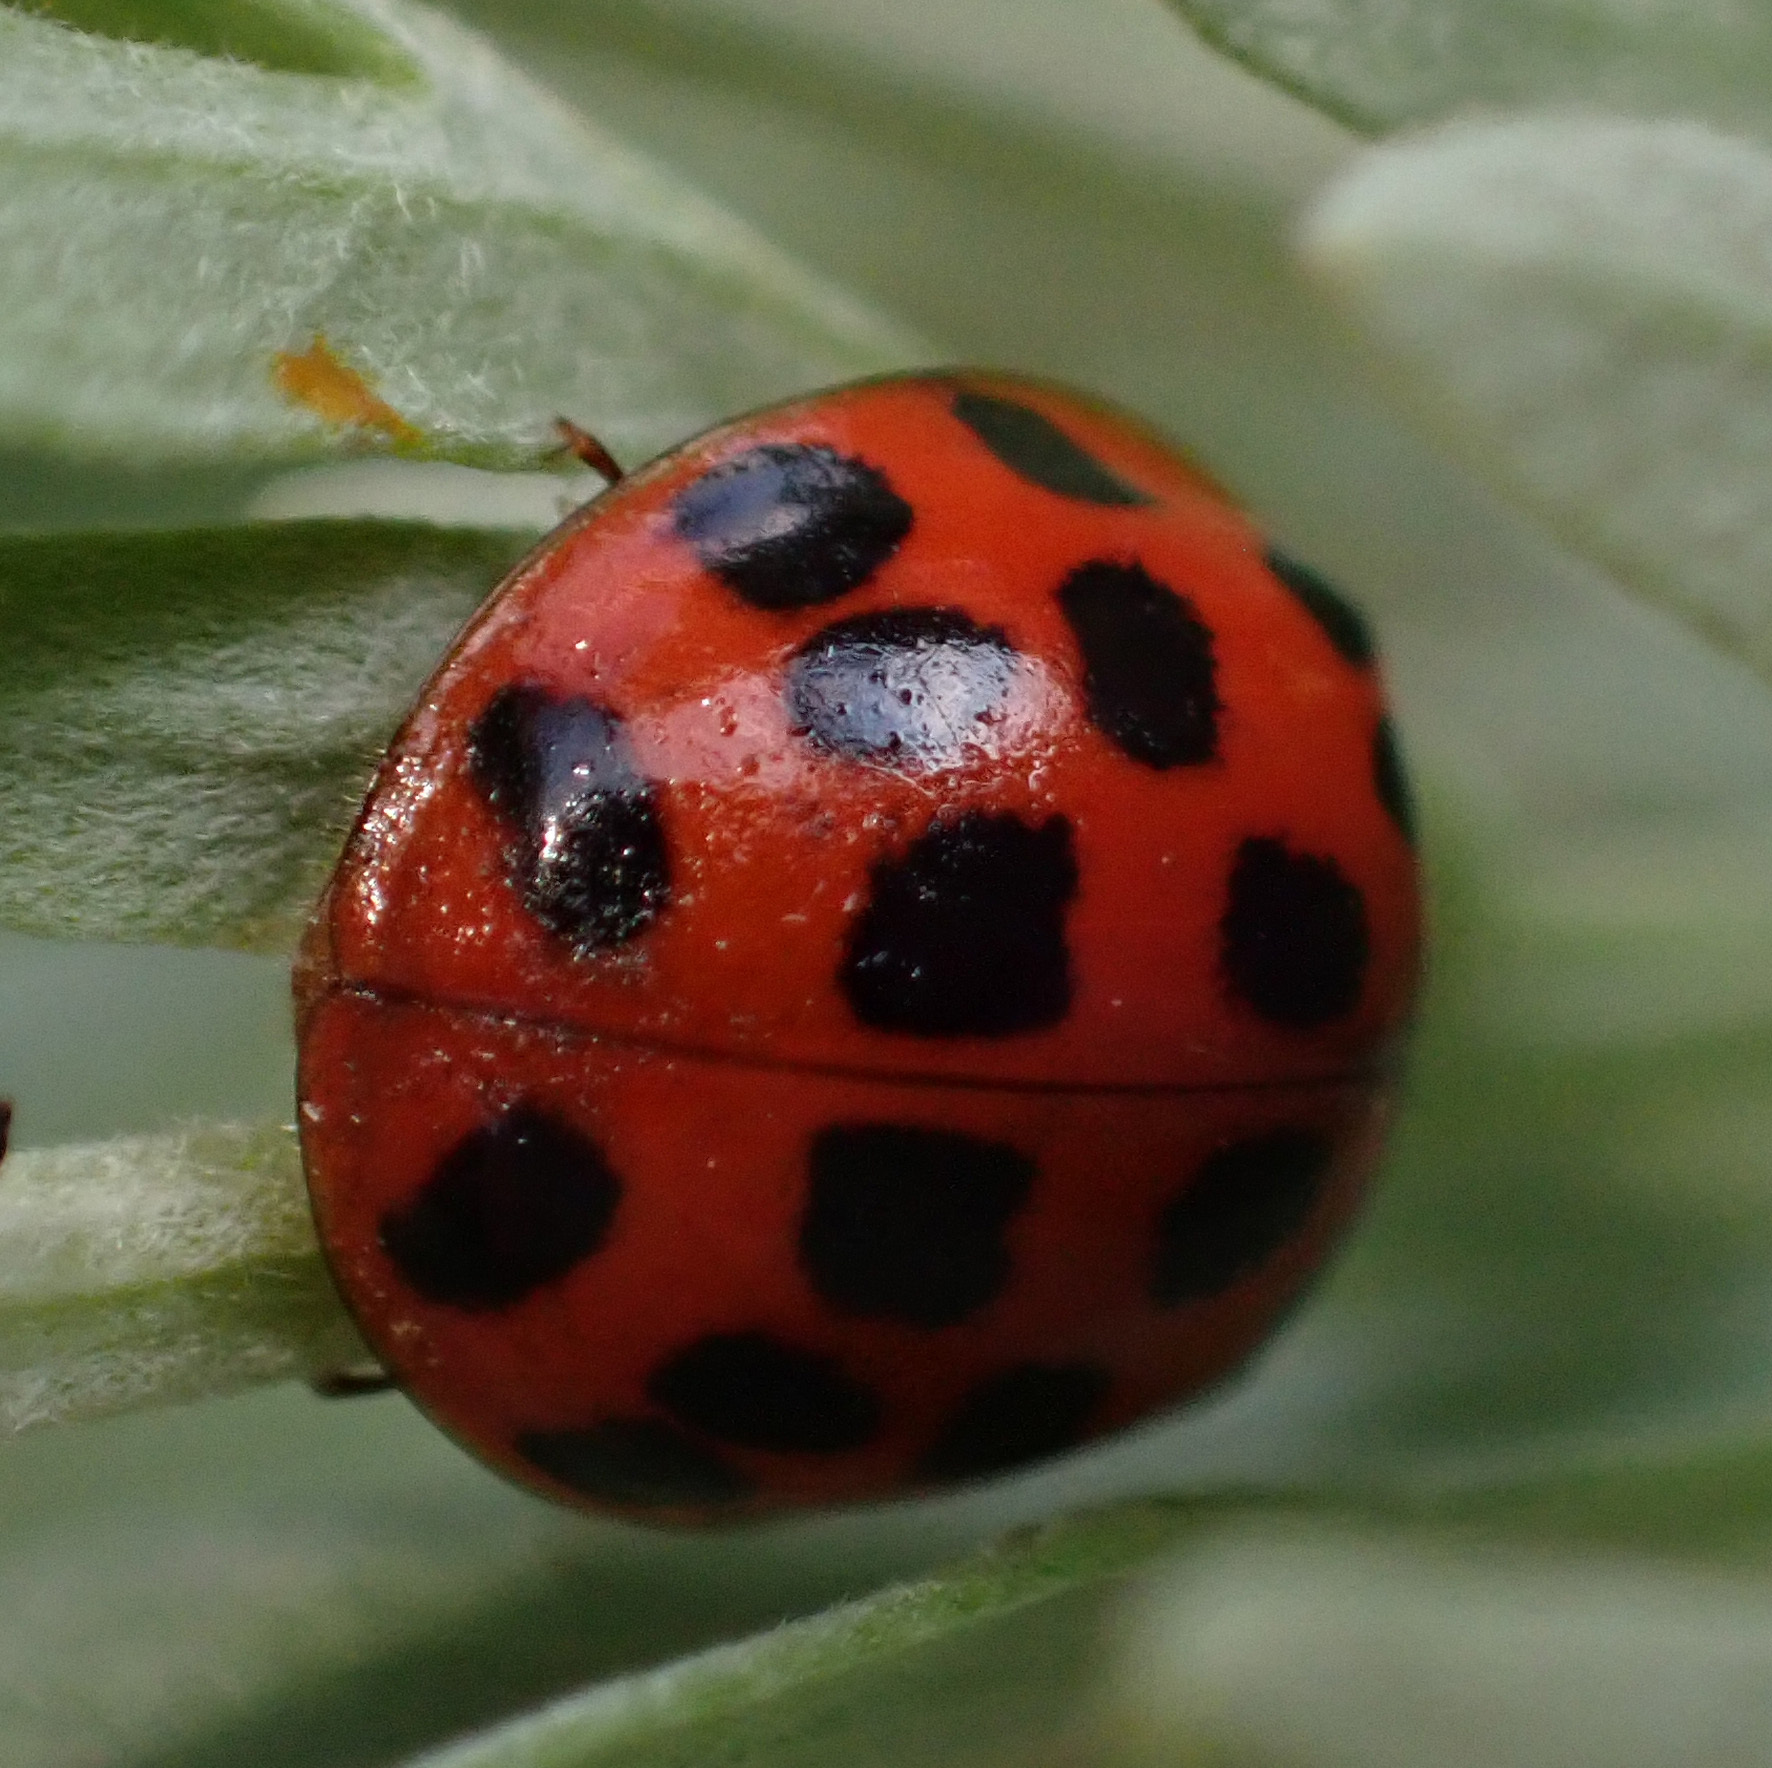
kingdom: Animalia
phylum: Arthropoda
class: Insecta
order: Coleoptera
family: Coccinellidae
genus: Harmonia
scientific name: Harmonia axyridis
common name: Harlequin ladybird
